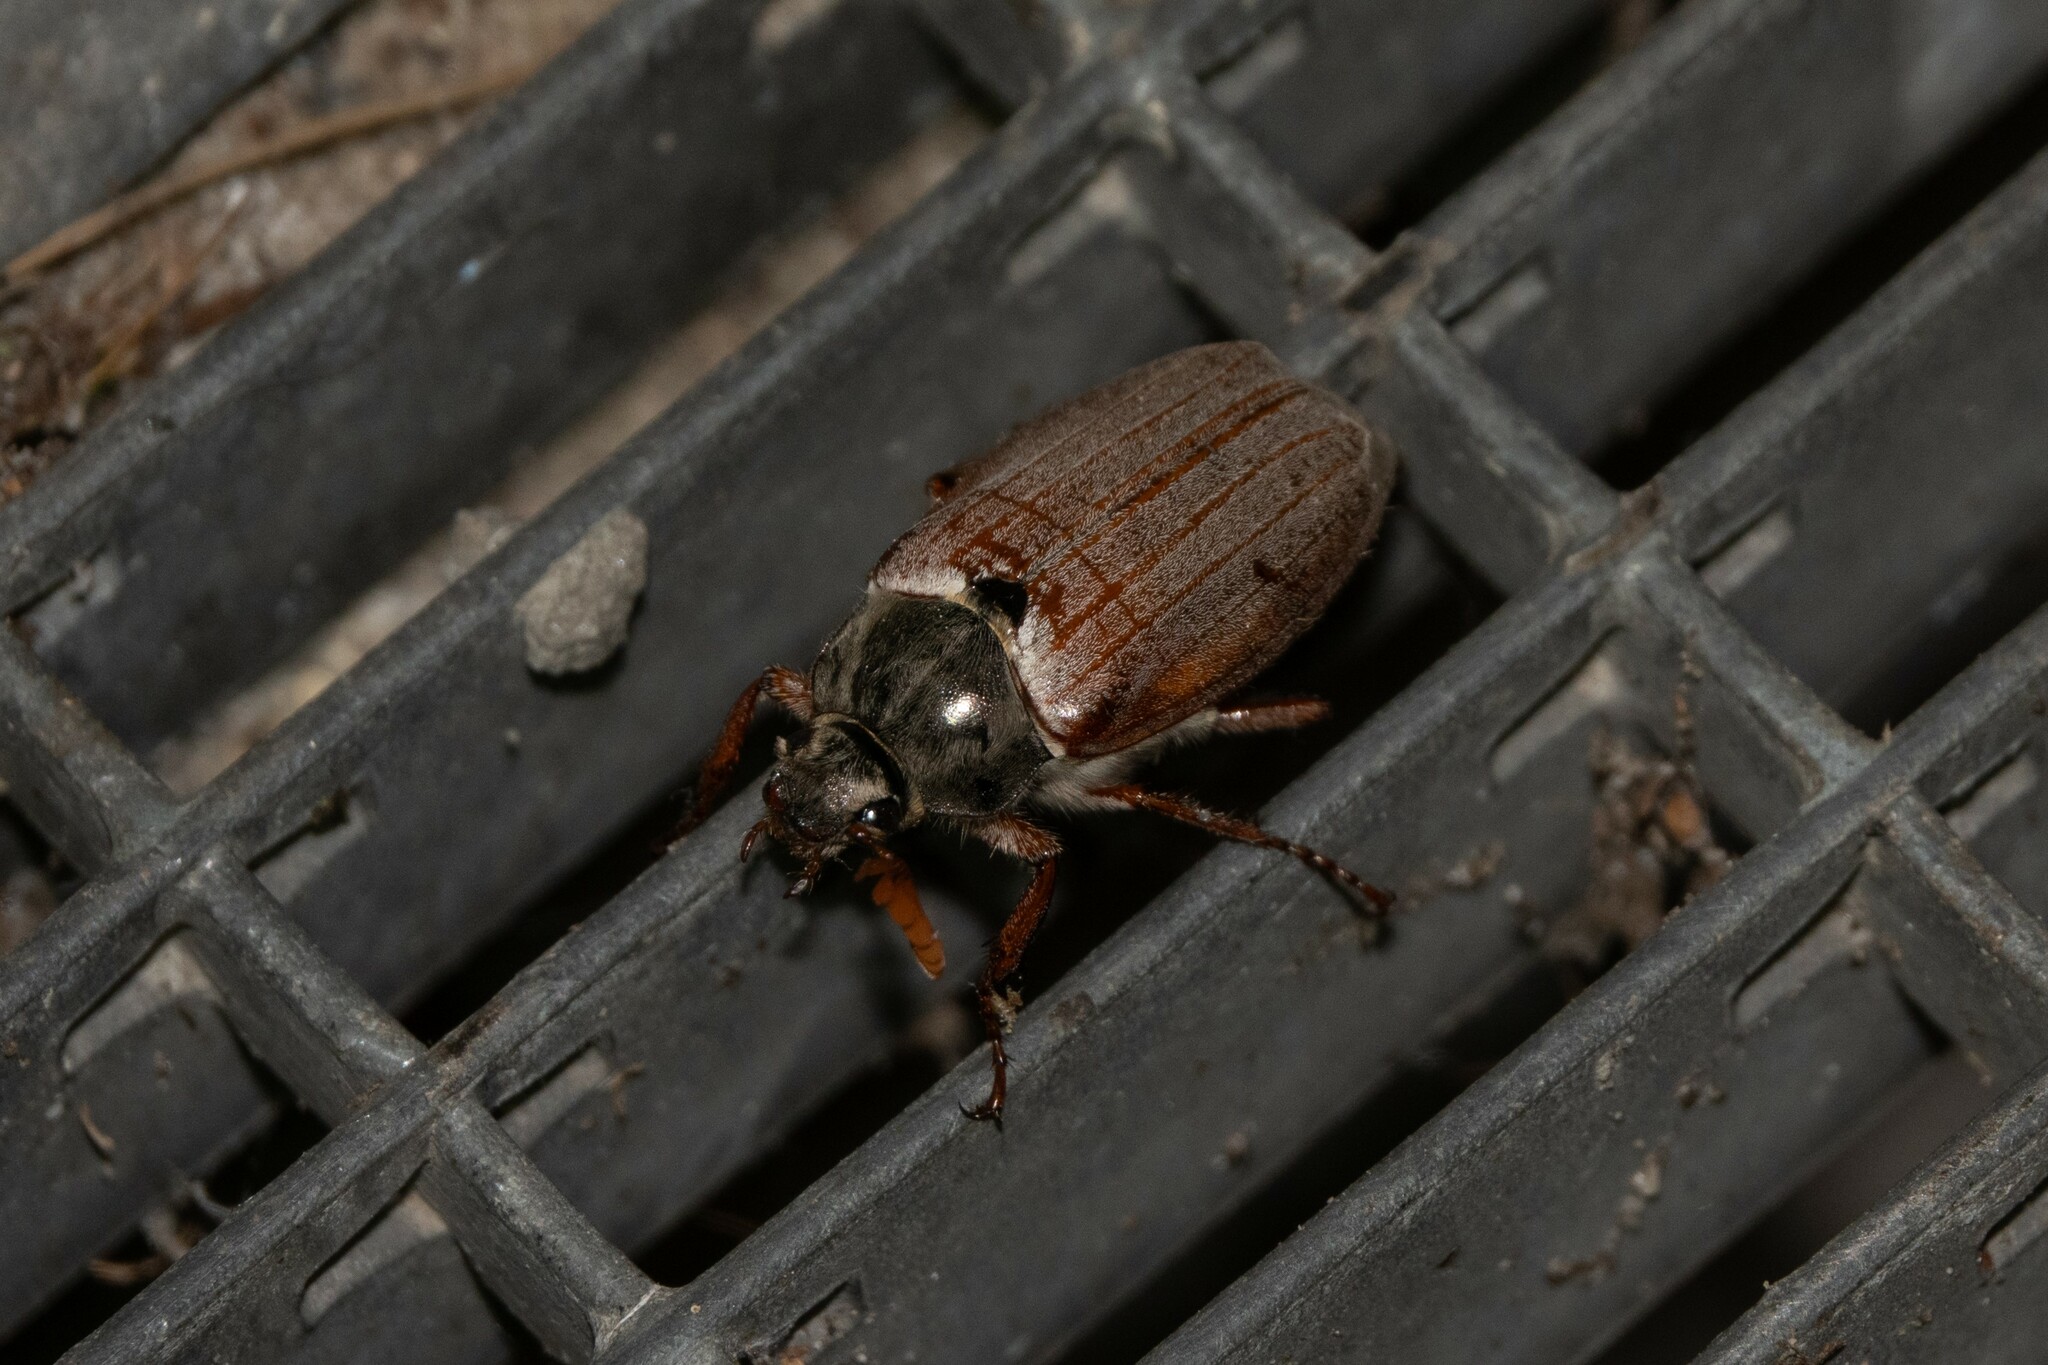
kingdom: Animalia
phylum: Arthropoda
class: Insecta
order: Coleoptera
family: Scarabaeidae
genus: Melolontha
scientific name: Melolontha melolontha
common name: Cockchafer maybeetle
